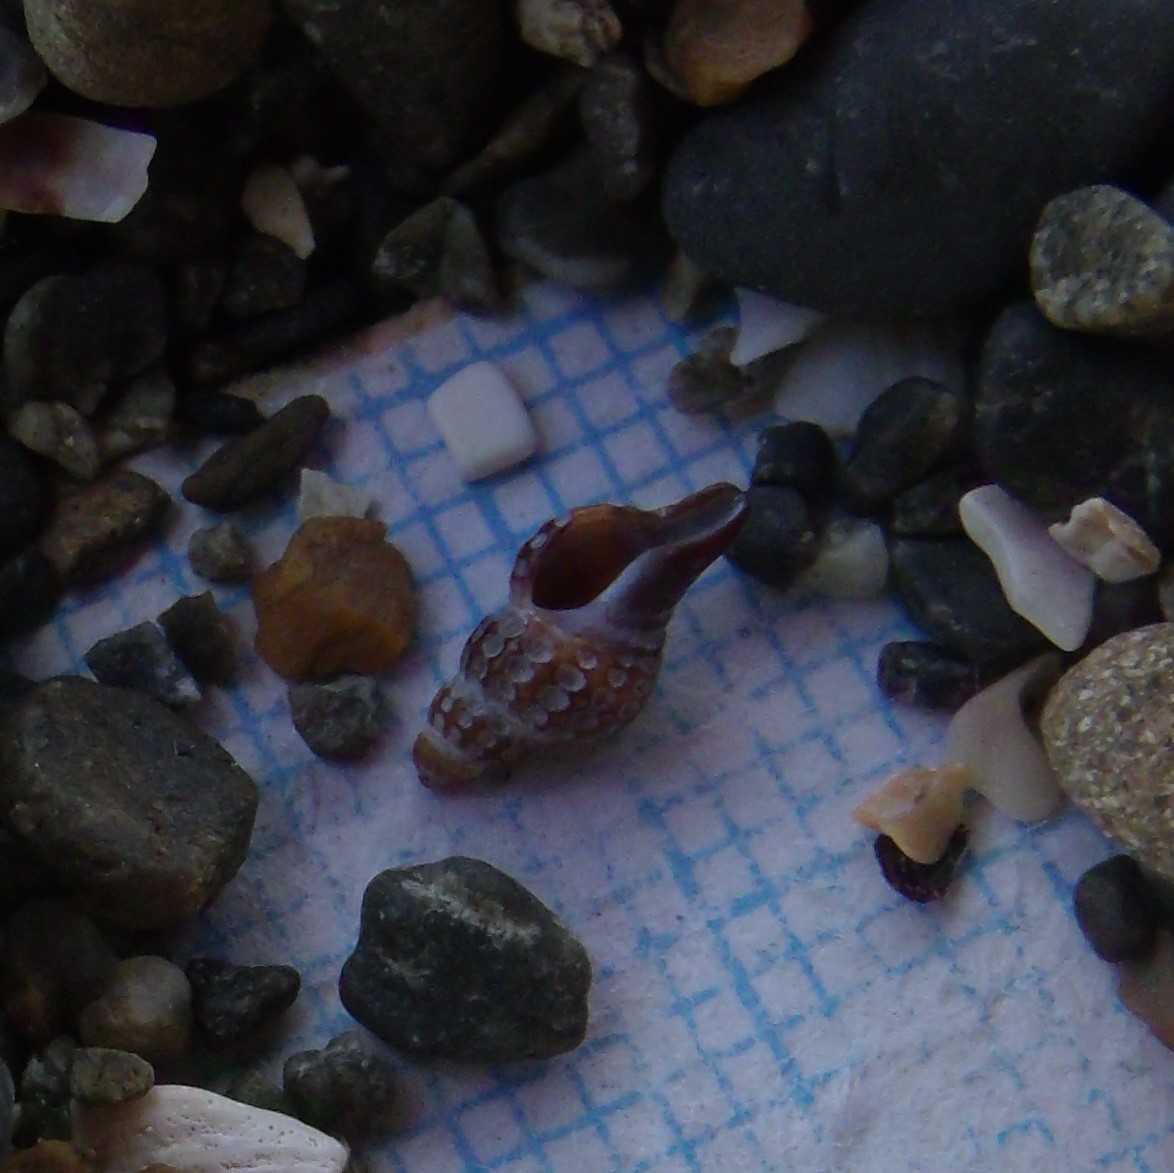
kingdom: Animalia
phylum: Mollusca
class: Gastropoda
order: Neogastropoda
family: Muricidae
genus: Xymene
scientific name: Xymene plebeius
